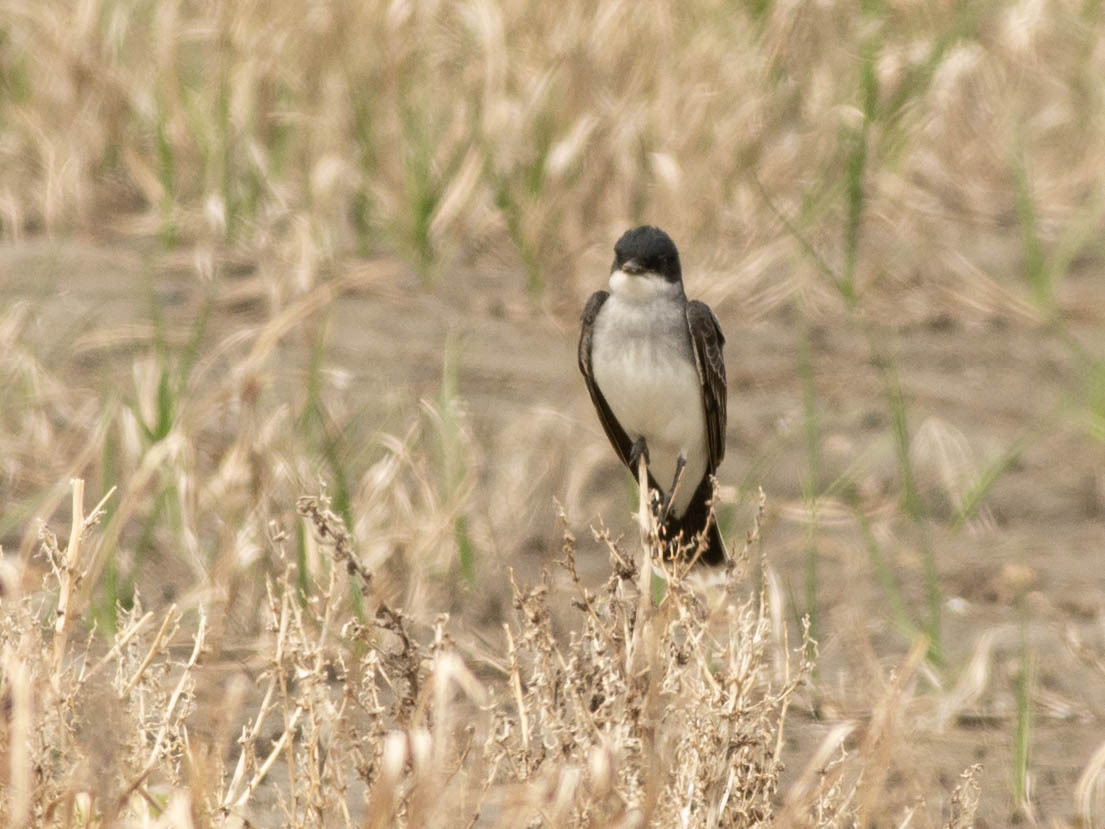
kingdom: Animalia
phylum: Chordata
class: Aves
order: Passeriformes
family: Tyrannidae
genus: Tyrannus
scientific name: Tyrannus tyrannus
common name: Eastern kingbird
